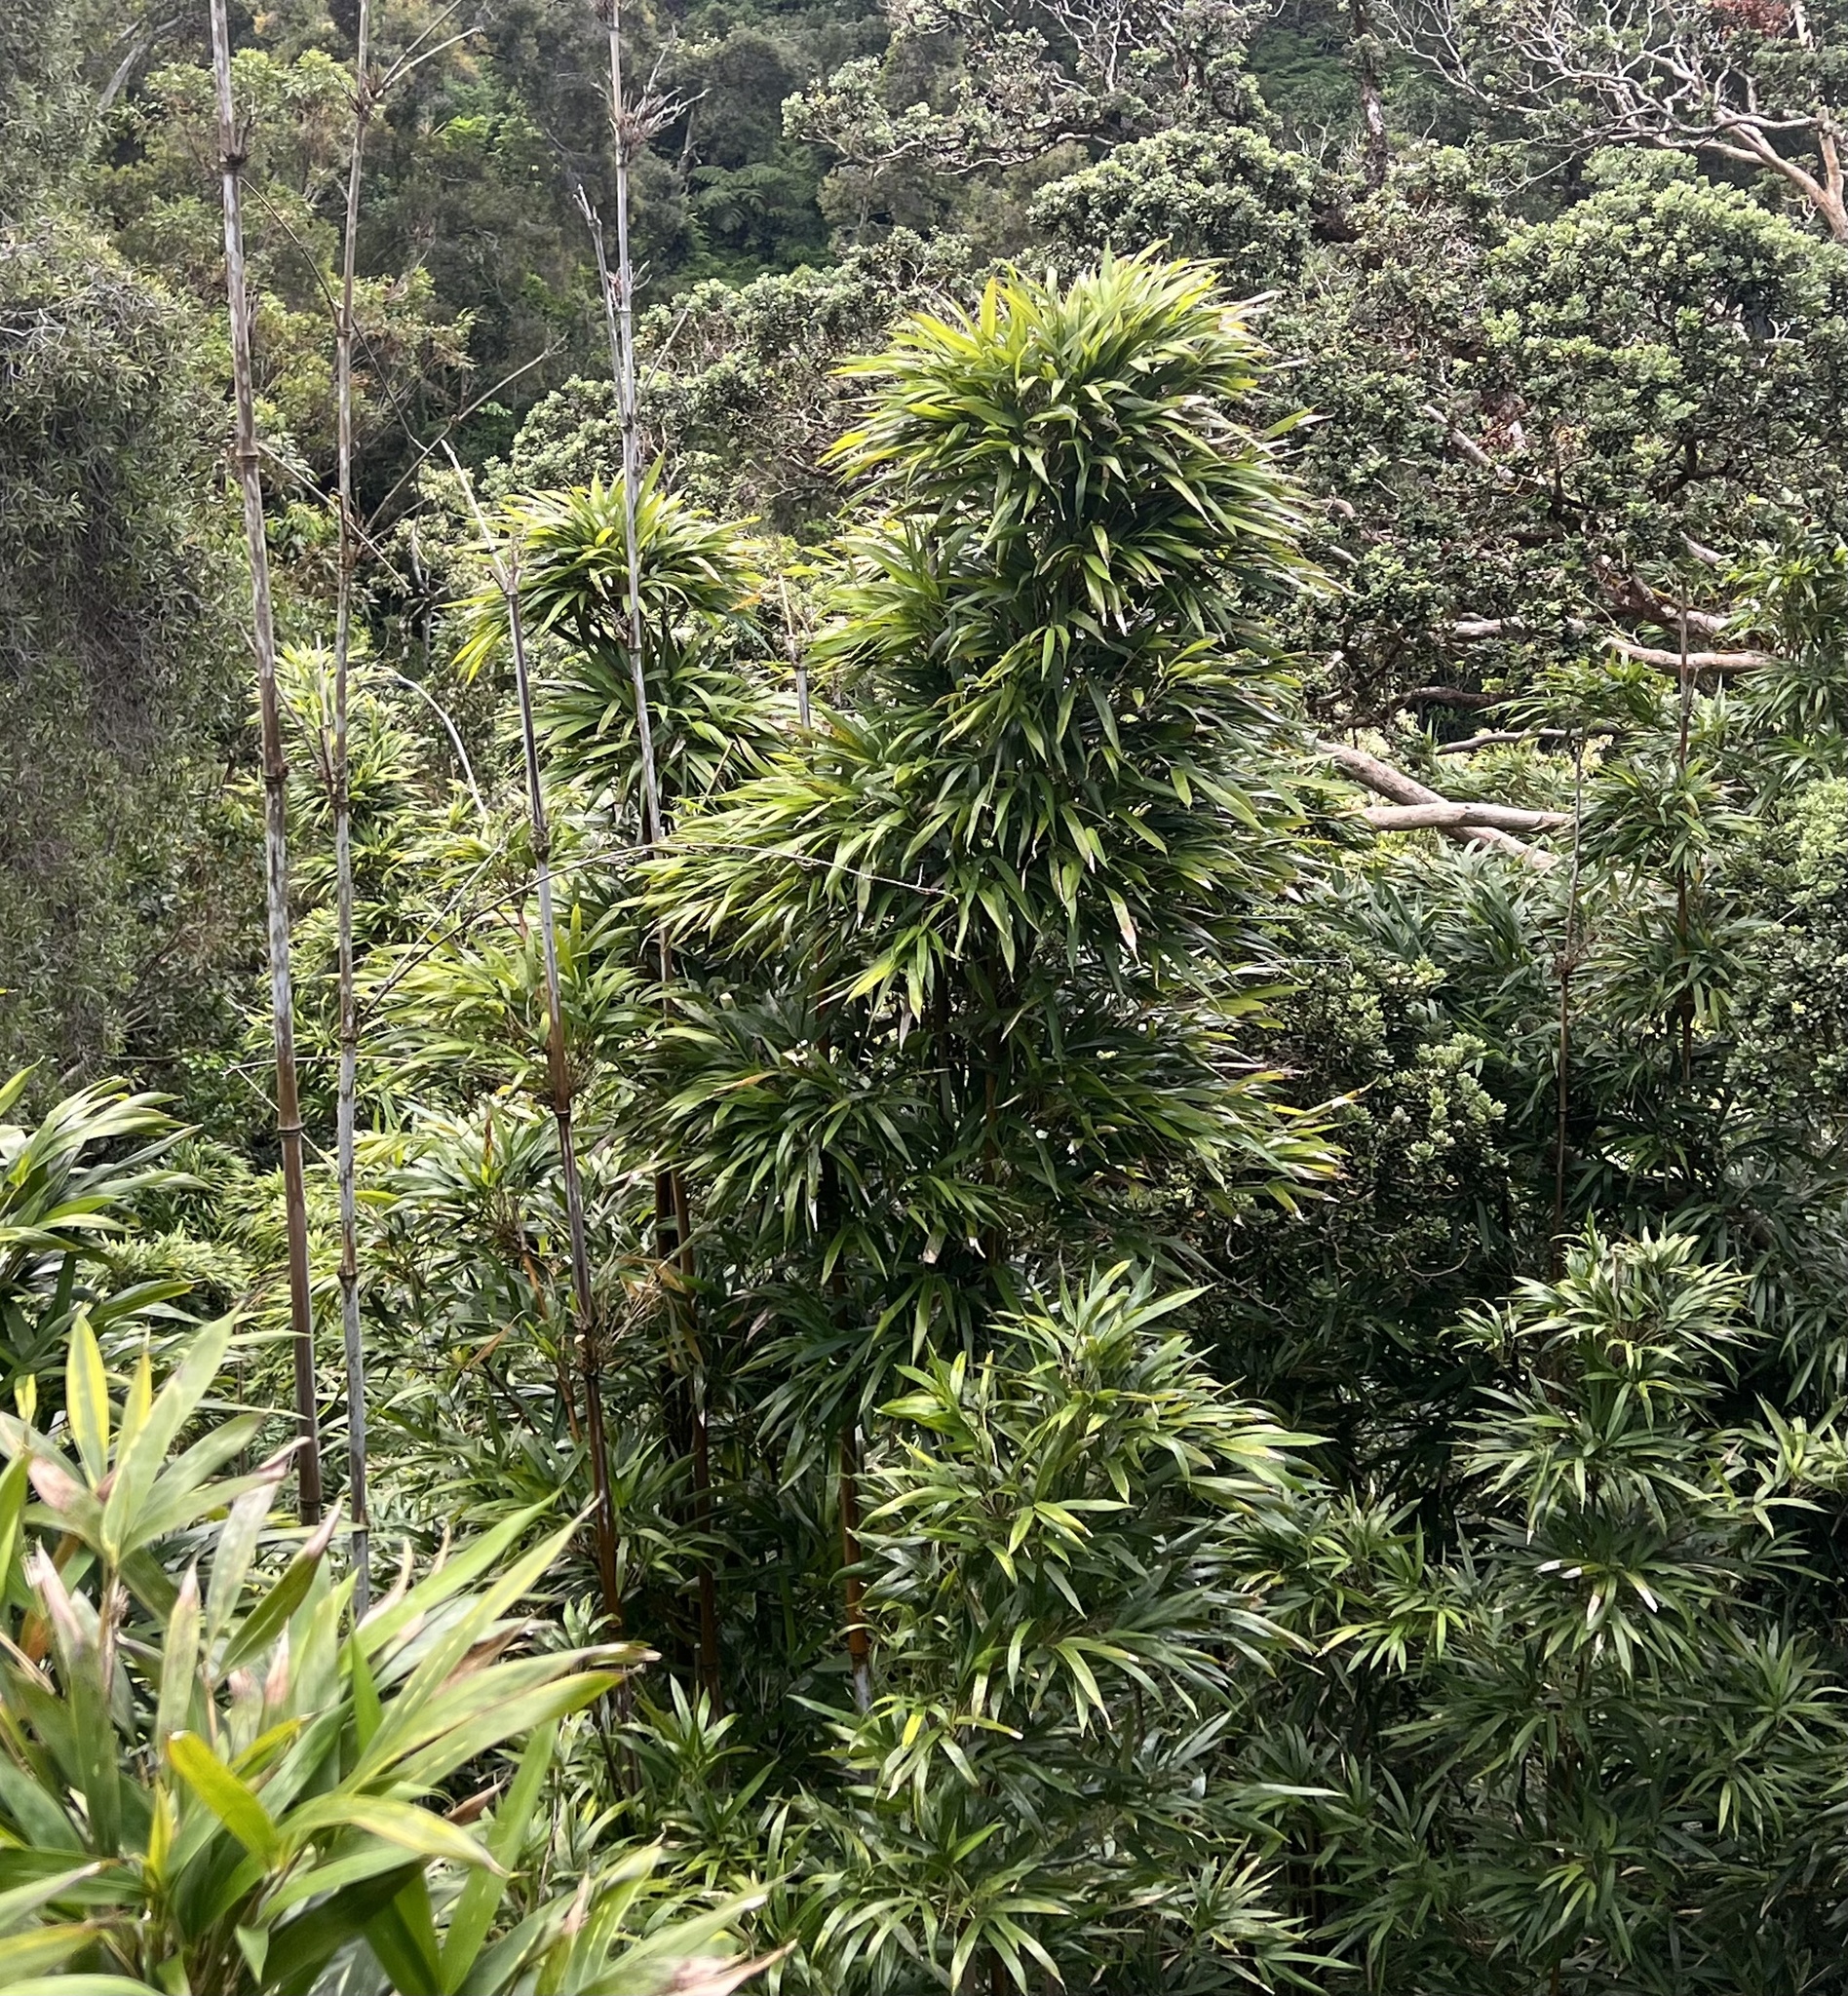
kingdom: Plantae
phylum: Tracheophyta
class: Liliopsida
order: Poales
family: Poaceae
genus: Phyllostachys
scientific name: Phyllostachys nigra
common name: Black bamboo
